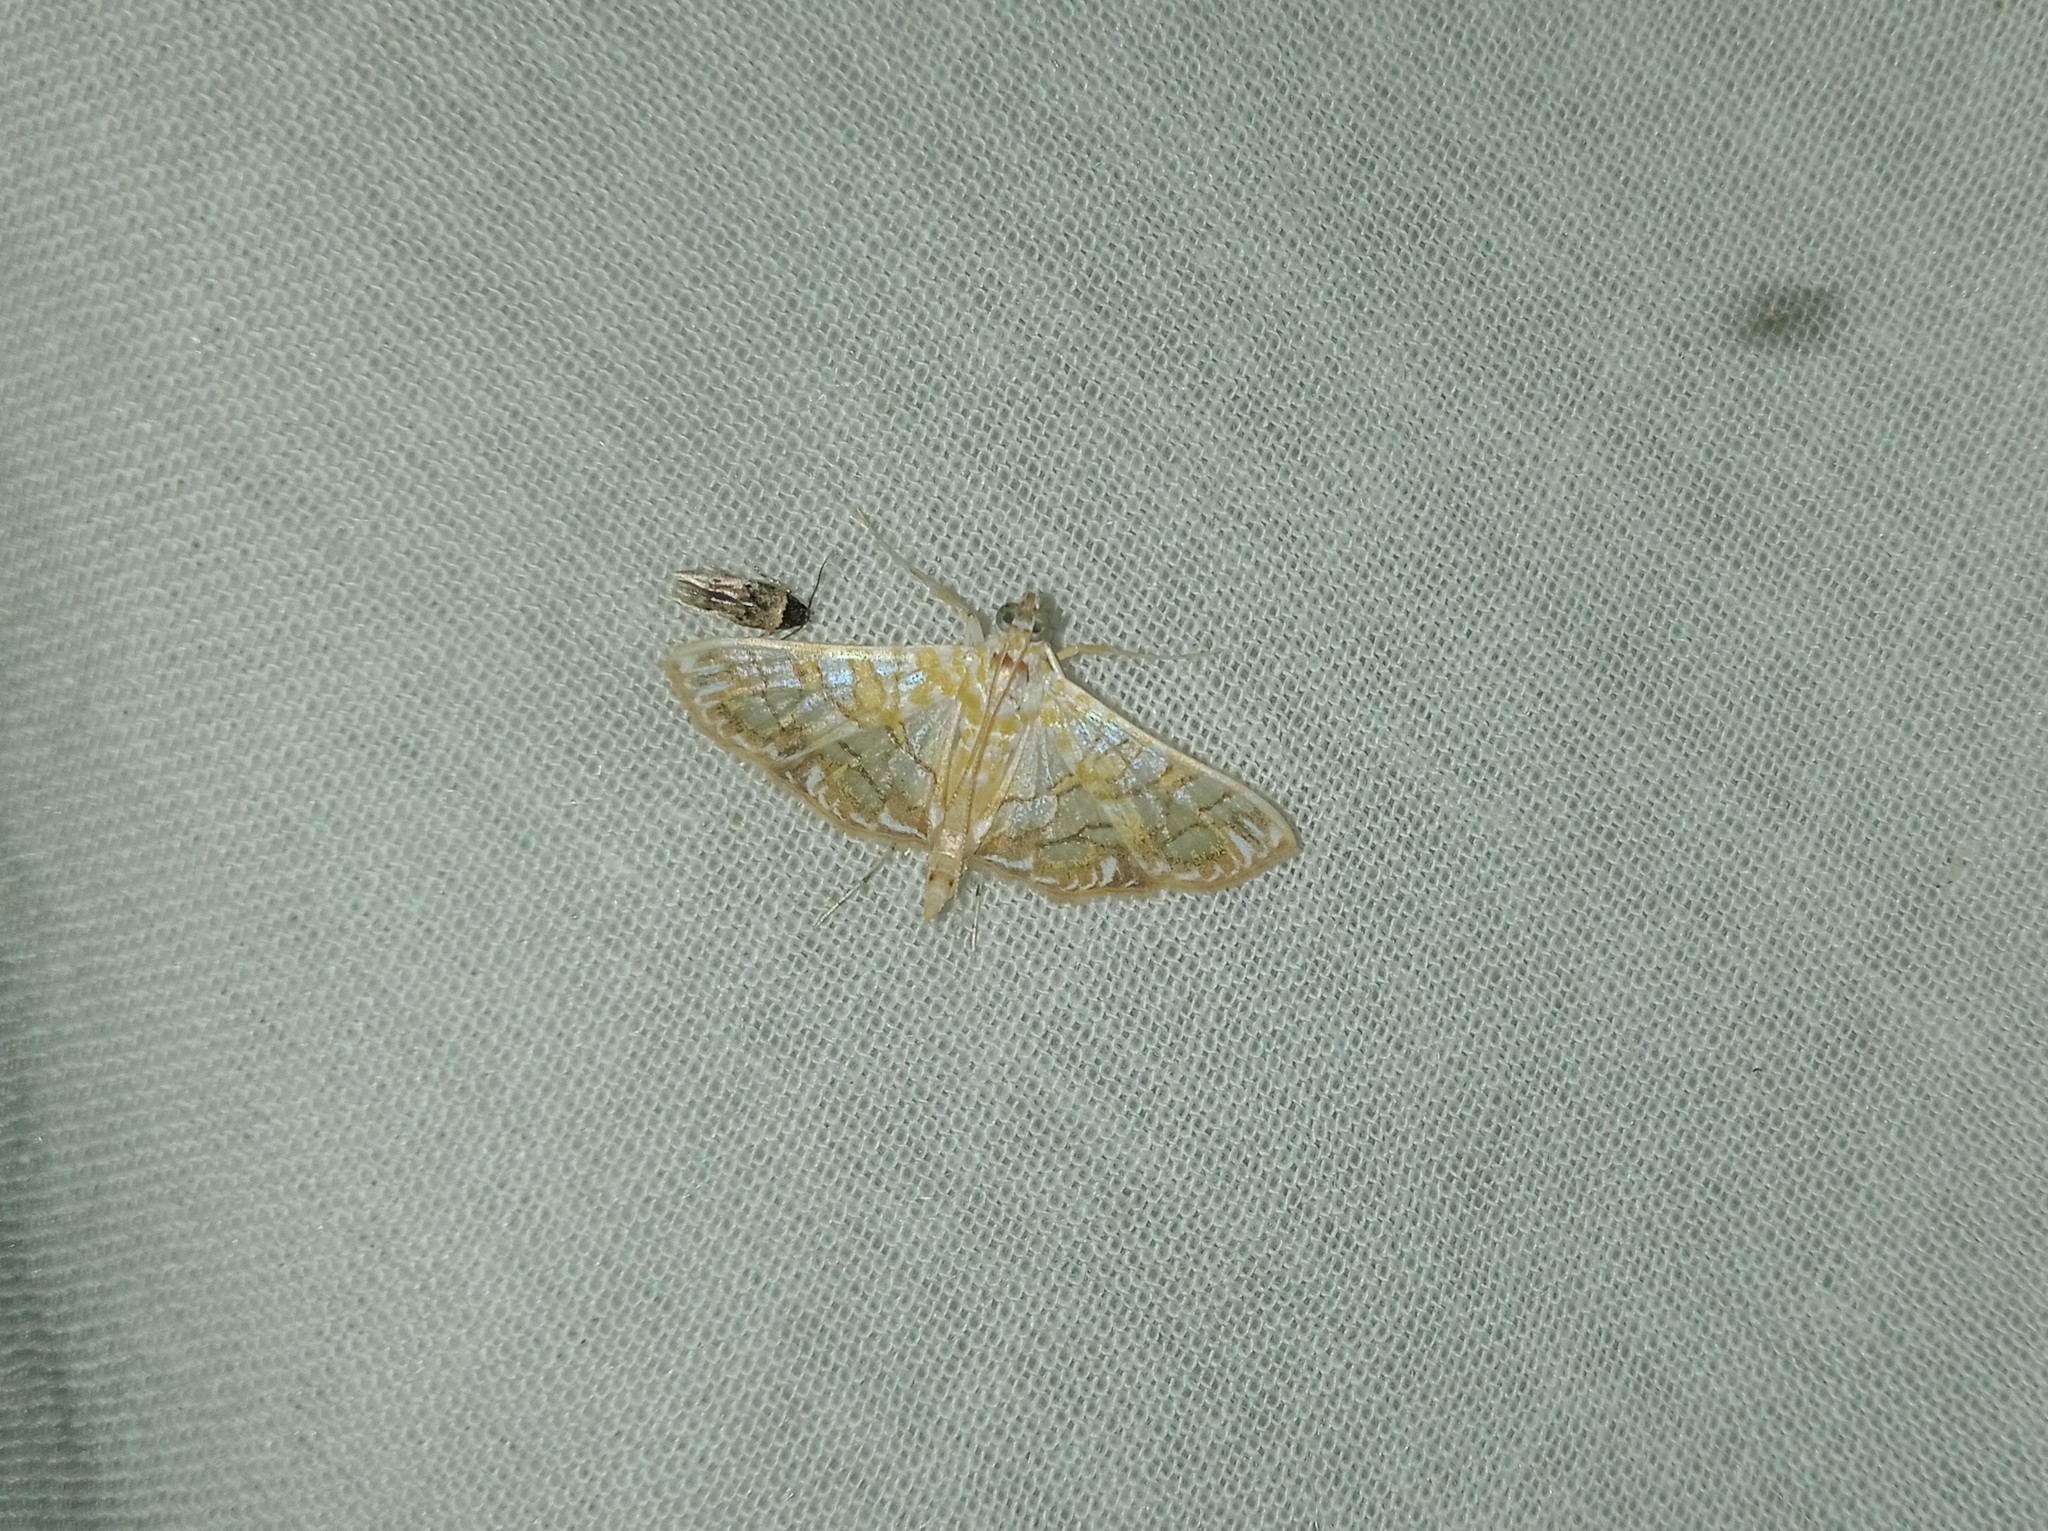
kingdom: Animalia
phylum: Arthropoda
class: Insecta
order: Lepidoptera
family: Crambidae
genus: Synclera
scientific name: Synclera traducalis
